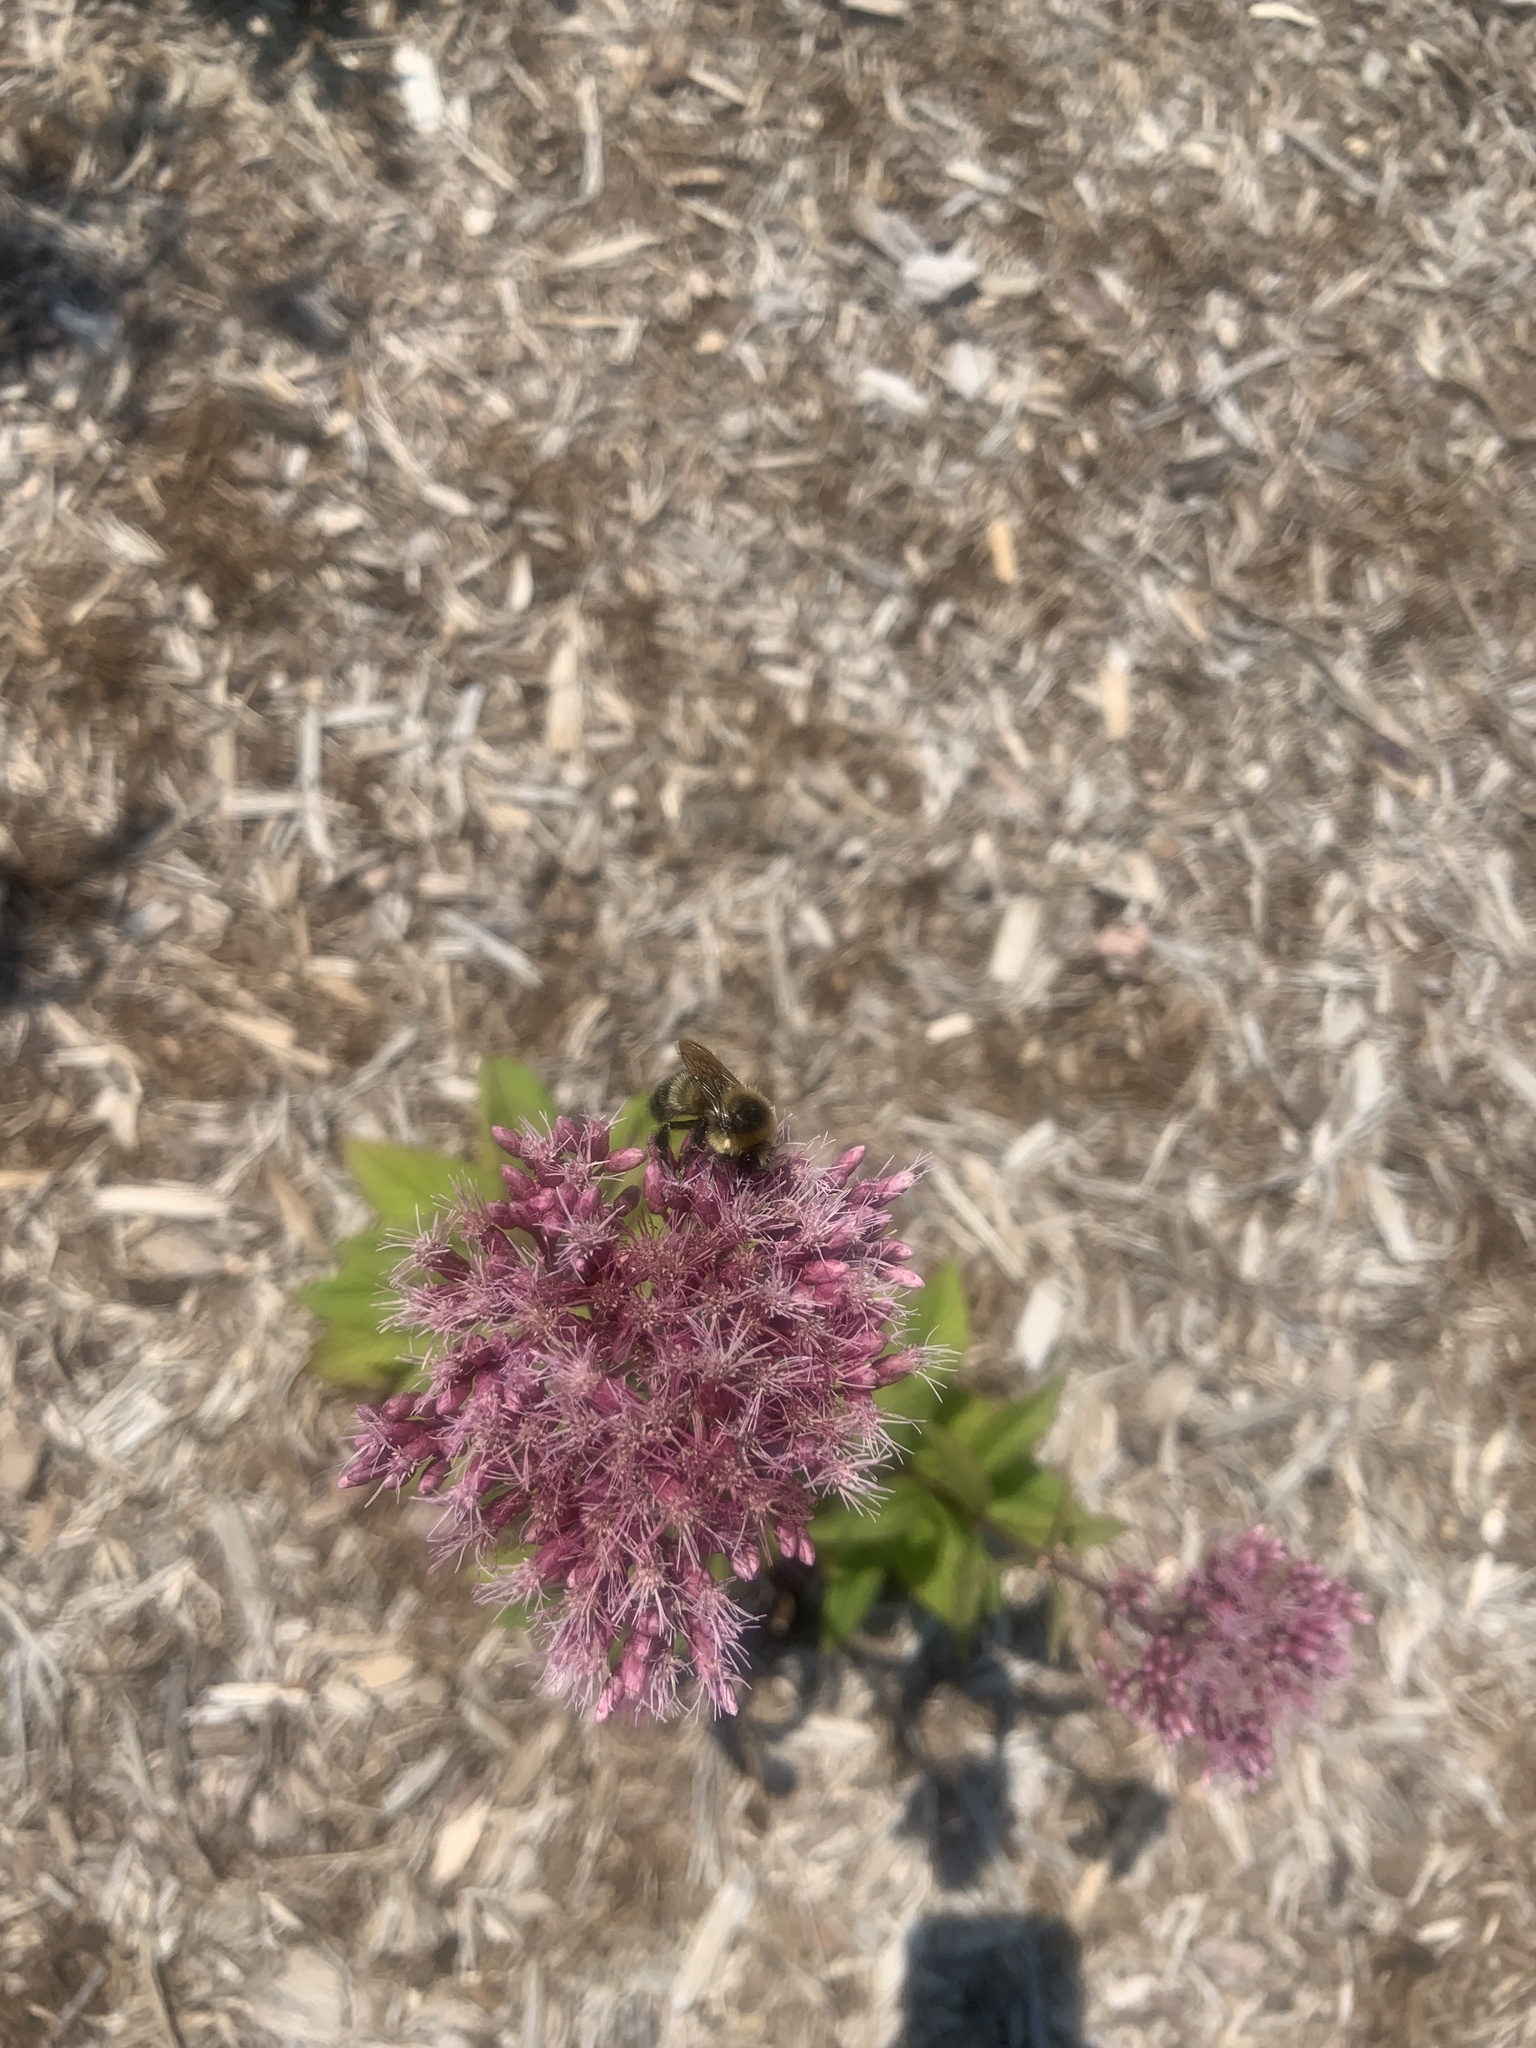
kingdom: Animalia
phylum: Arthropoda
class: Insecta
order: Hymenoptera
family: Apidae
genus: Bombus
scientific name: Bombus rufocinctus
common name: Red-belted bumble bee
